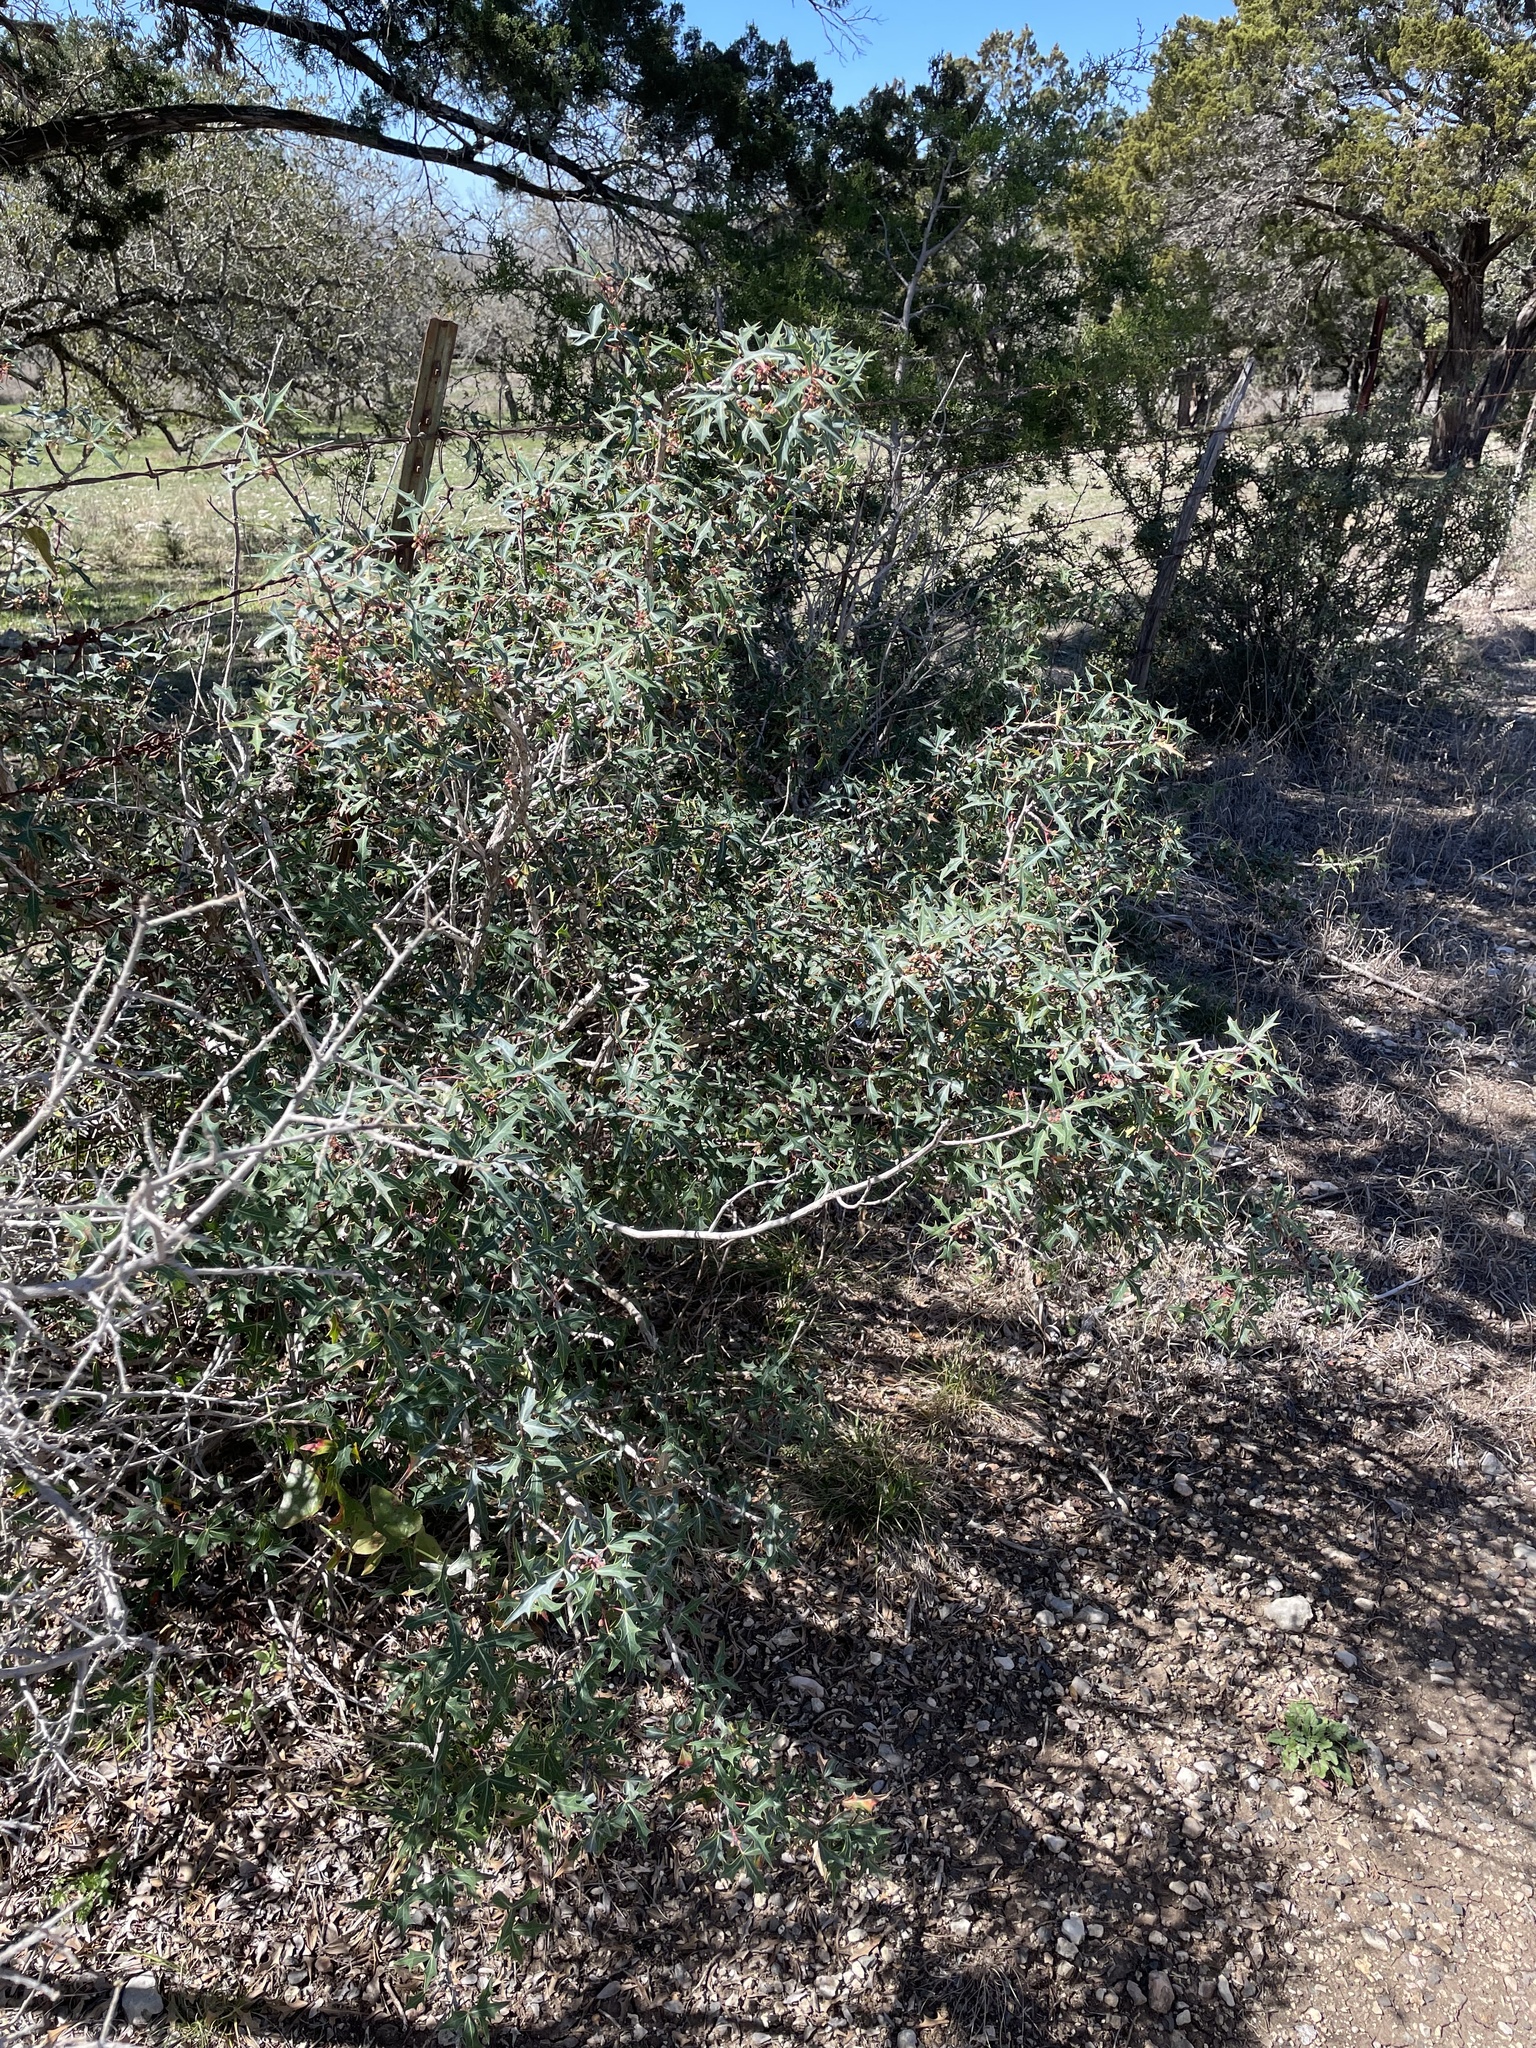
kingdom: Plantae
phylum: Tracheophyta
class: Magnoliopsida
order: Ranunculales
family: Berberidaceae
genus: Alloberberis
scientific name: Alloberberis trifoliolata
